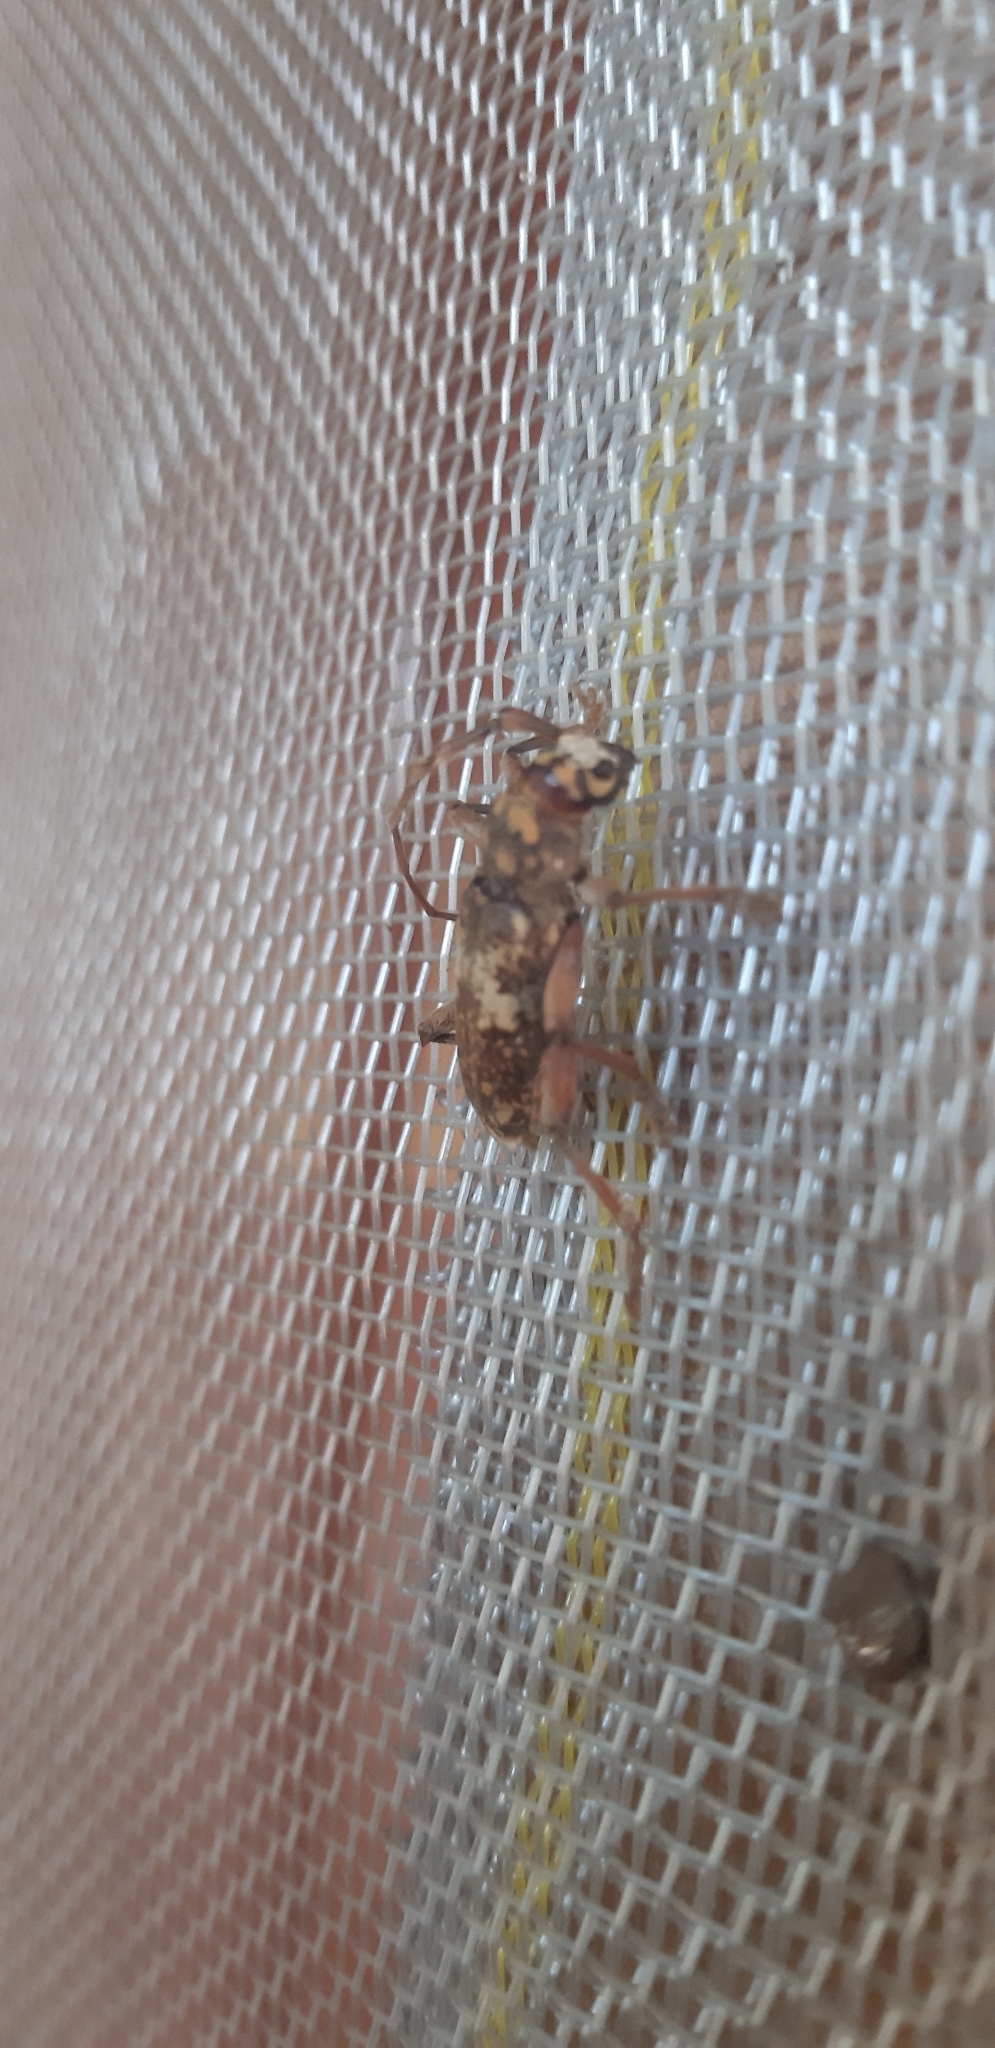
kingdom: Animalia
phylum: Arthropoda
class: Insecta
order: Coleoptera
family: Cerambycidae
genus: Lanephus
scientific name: Lanephus njumanii
